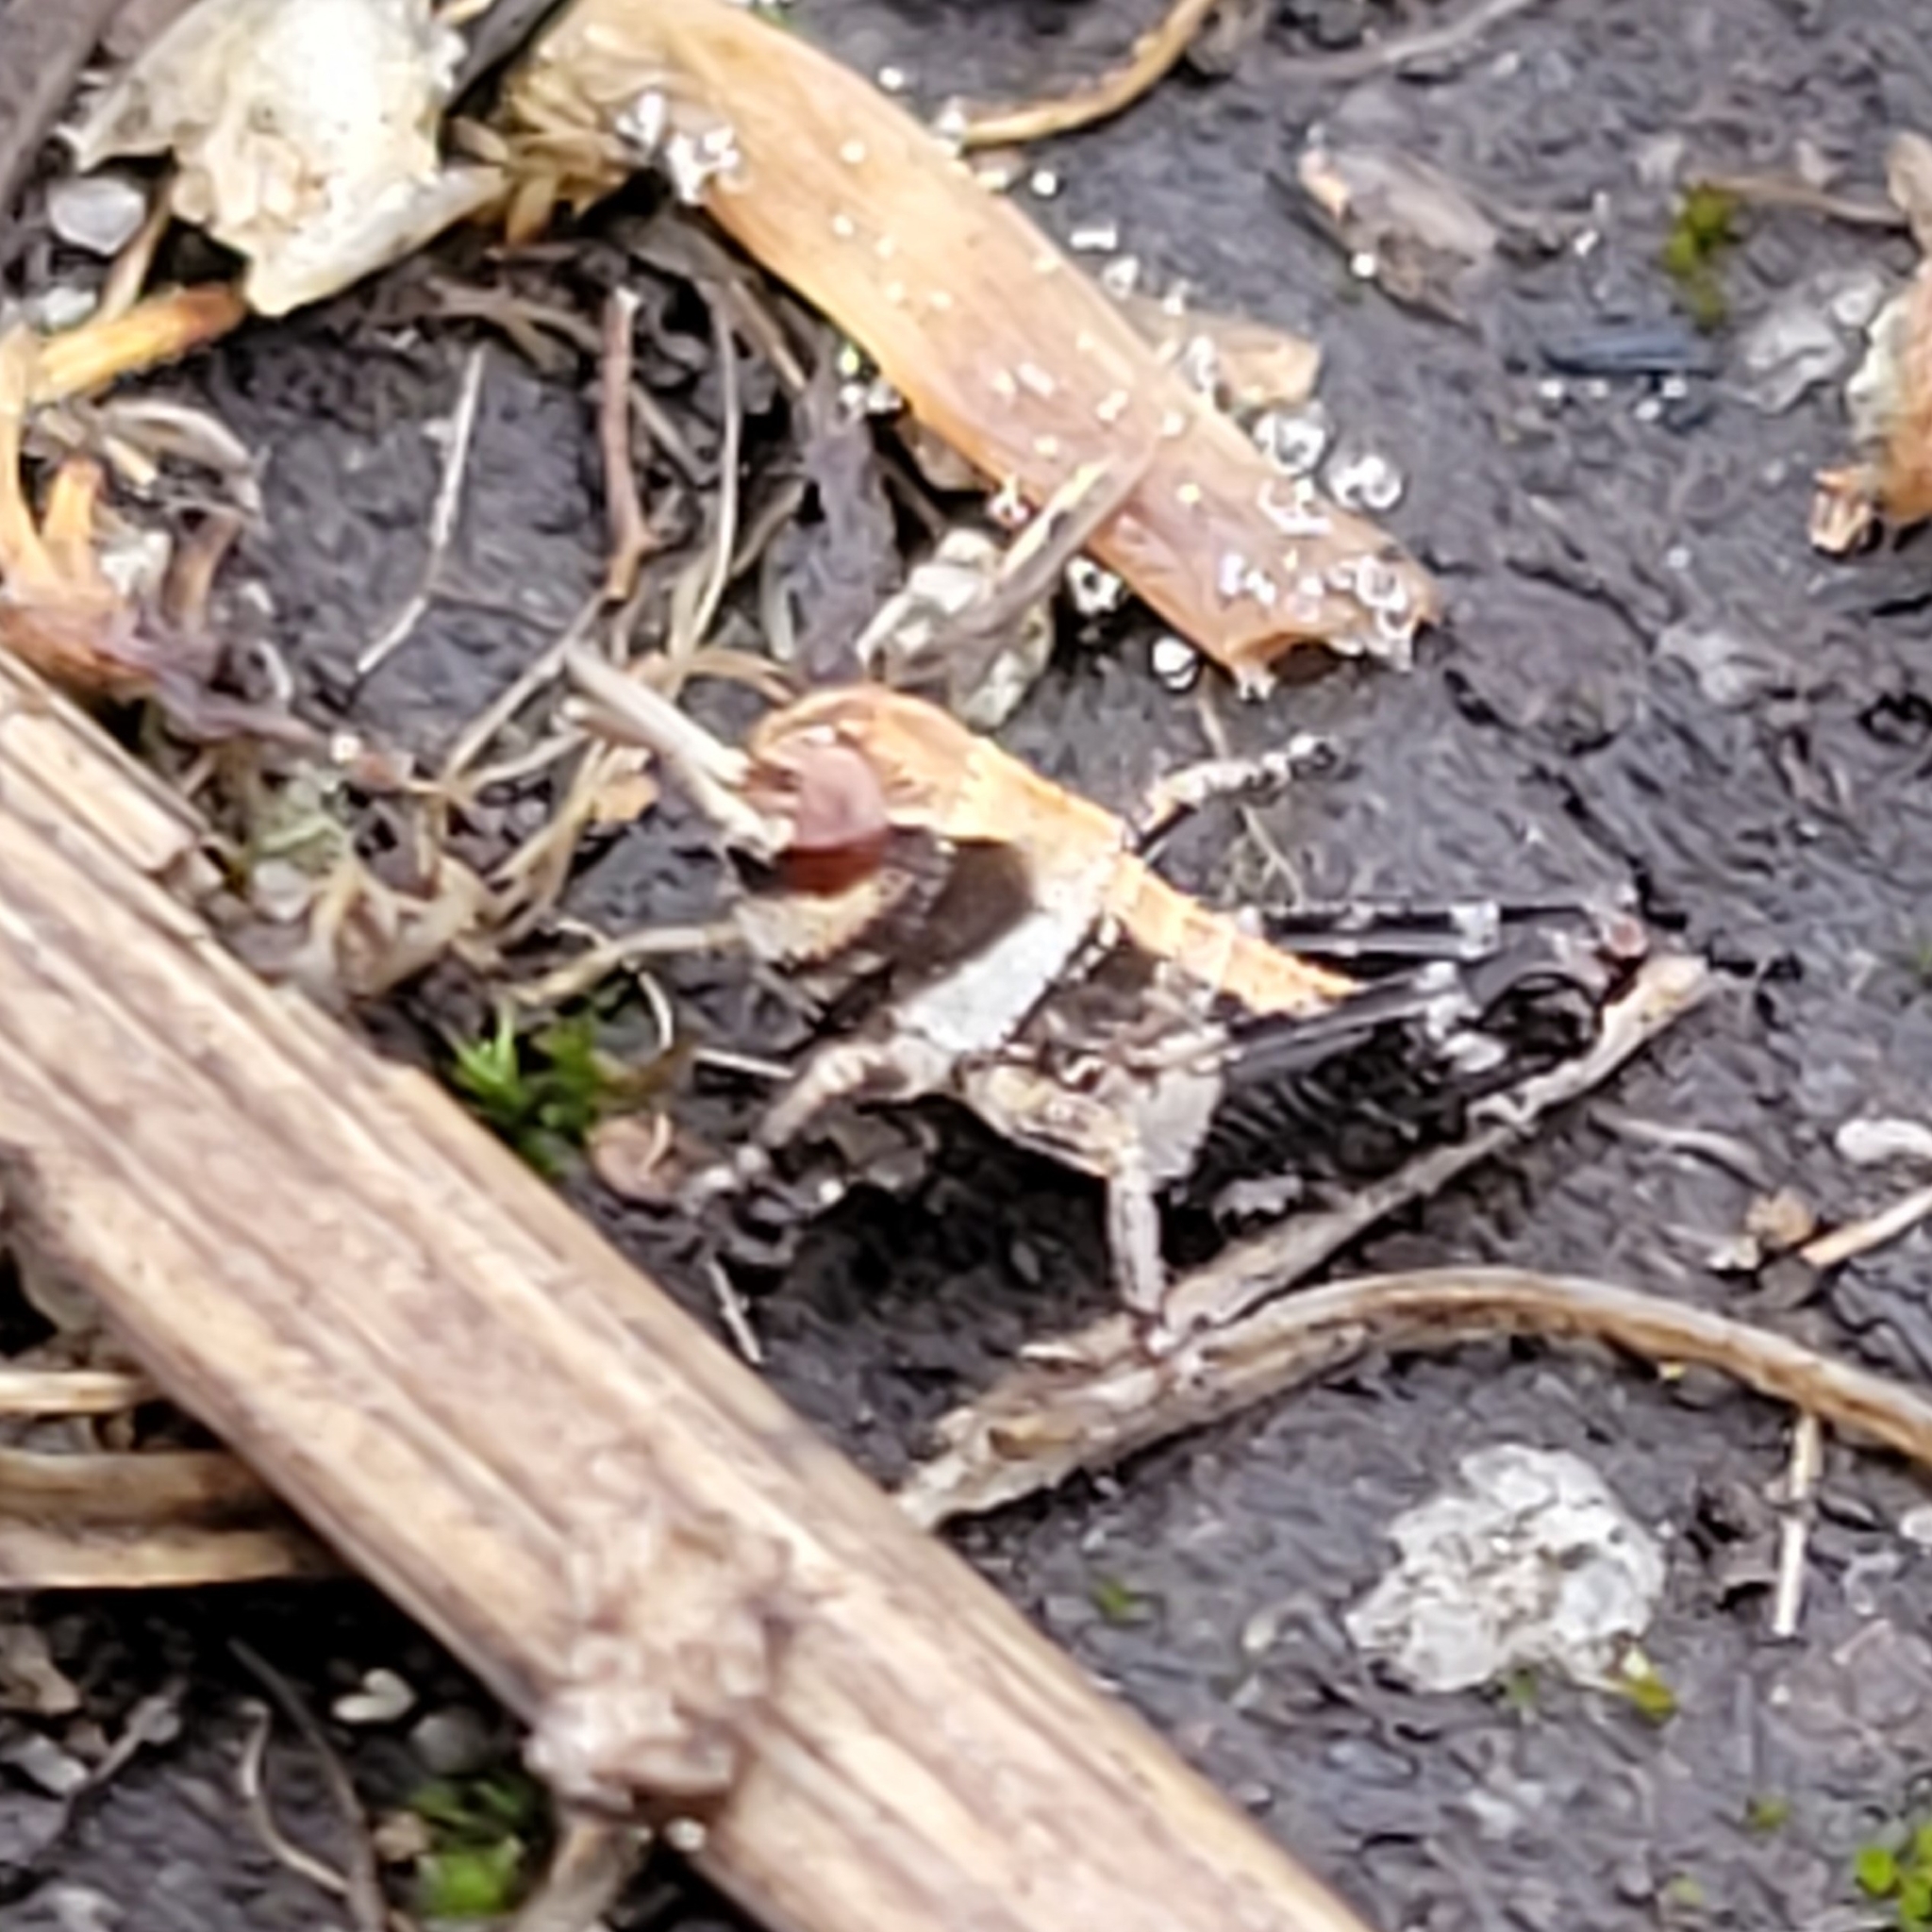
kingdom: Animalia
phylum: Arthropoda
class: Insecta
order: Orthoptera
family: Acrididae
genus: Camnula
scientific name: Camnula pellucida
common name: Clear-winged grasshopper
